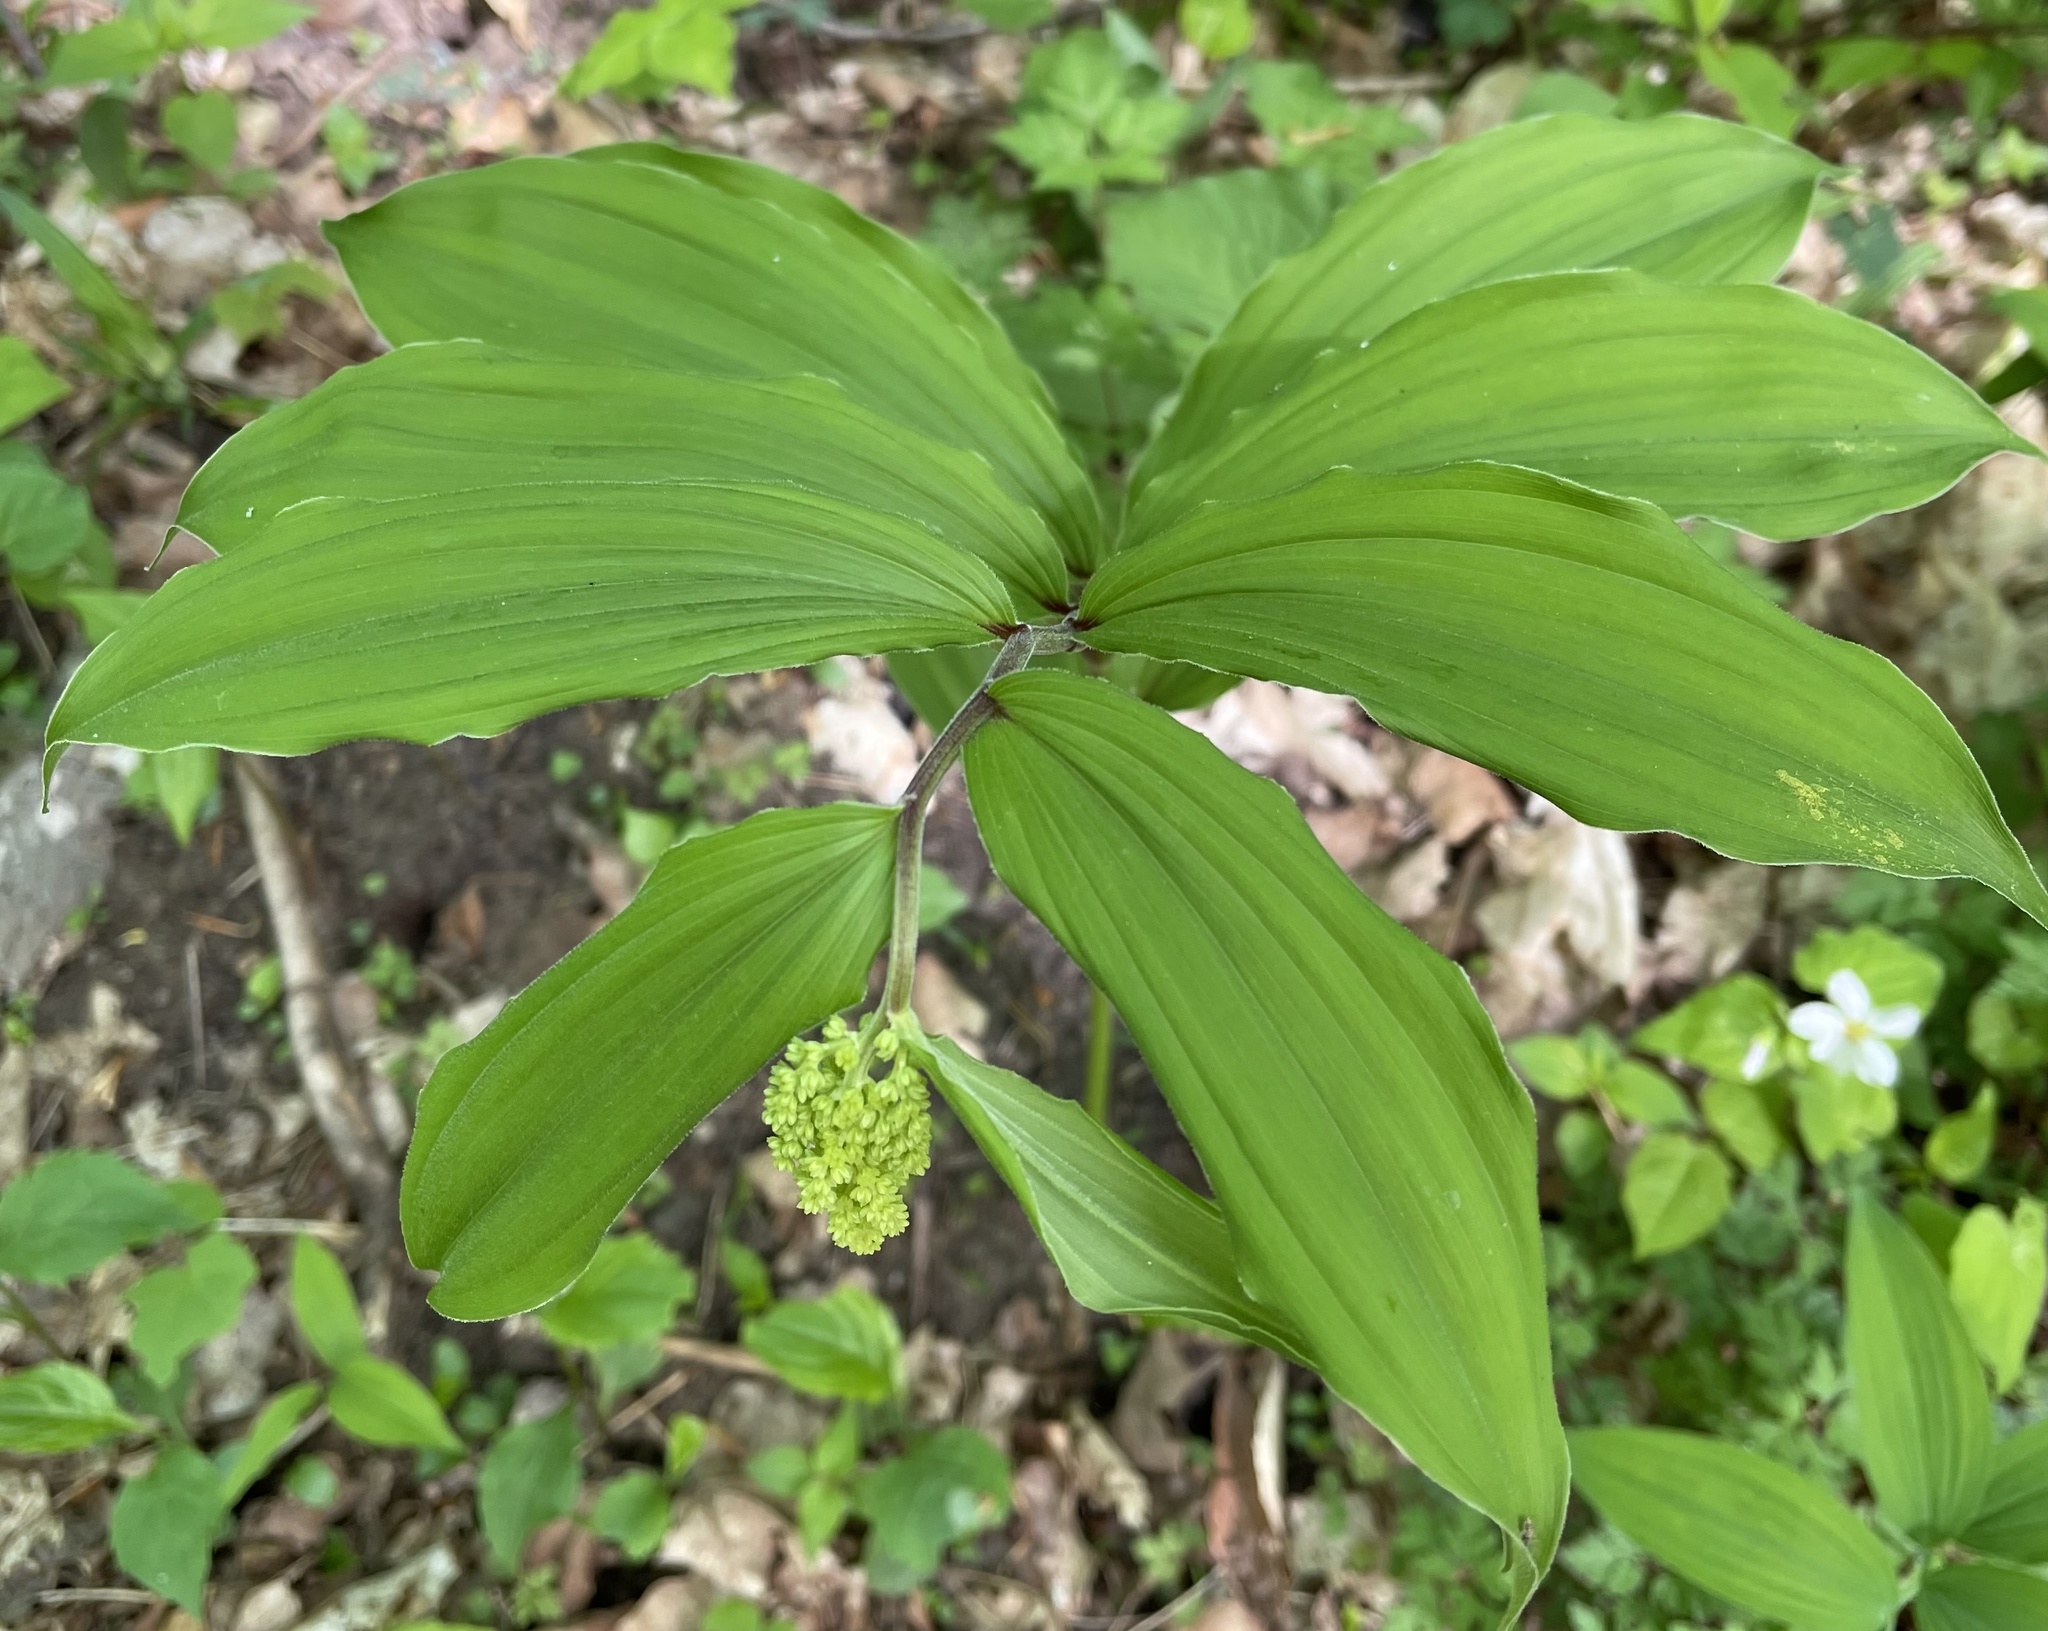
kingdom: Plantae
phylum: Tracheophyta
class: Liliopsida
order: Asparagales
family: Asparagaceae
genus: Maianthemum
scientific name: Maianthemum racemosum
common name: False spikenard
